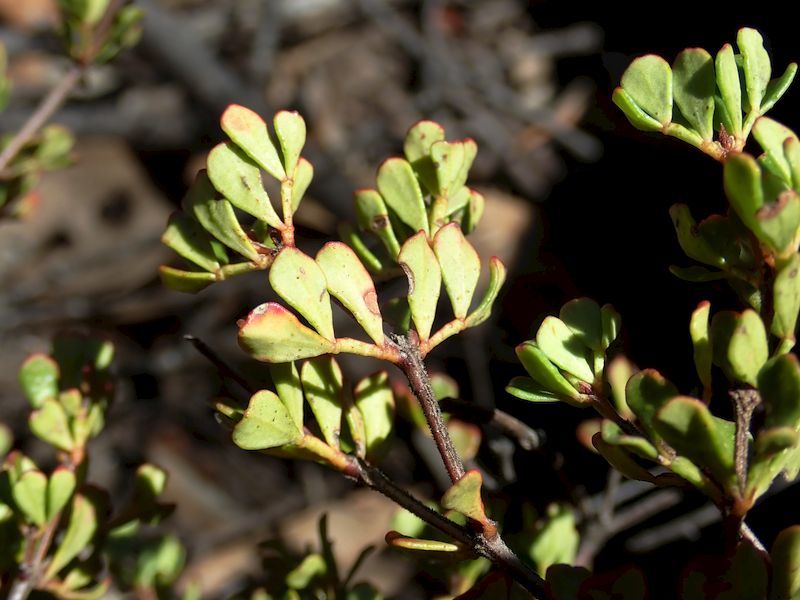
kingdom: Plantae
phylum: Tracheophyta
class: Magnoliopsida
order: Sapindales
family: Rutaceae
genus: Boronia
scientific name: Boronia algida
